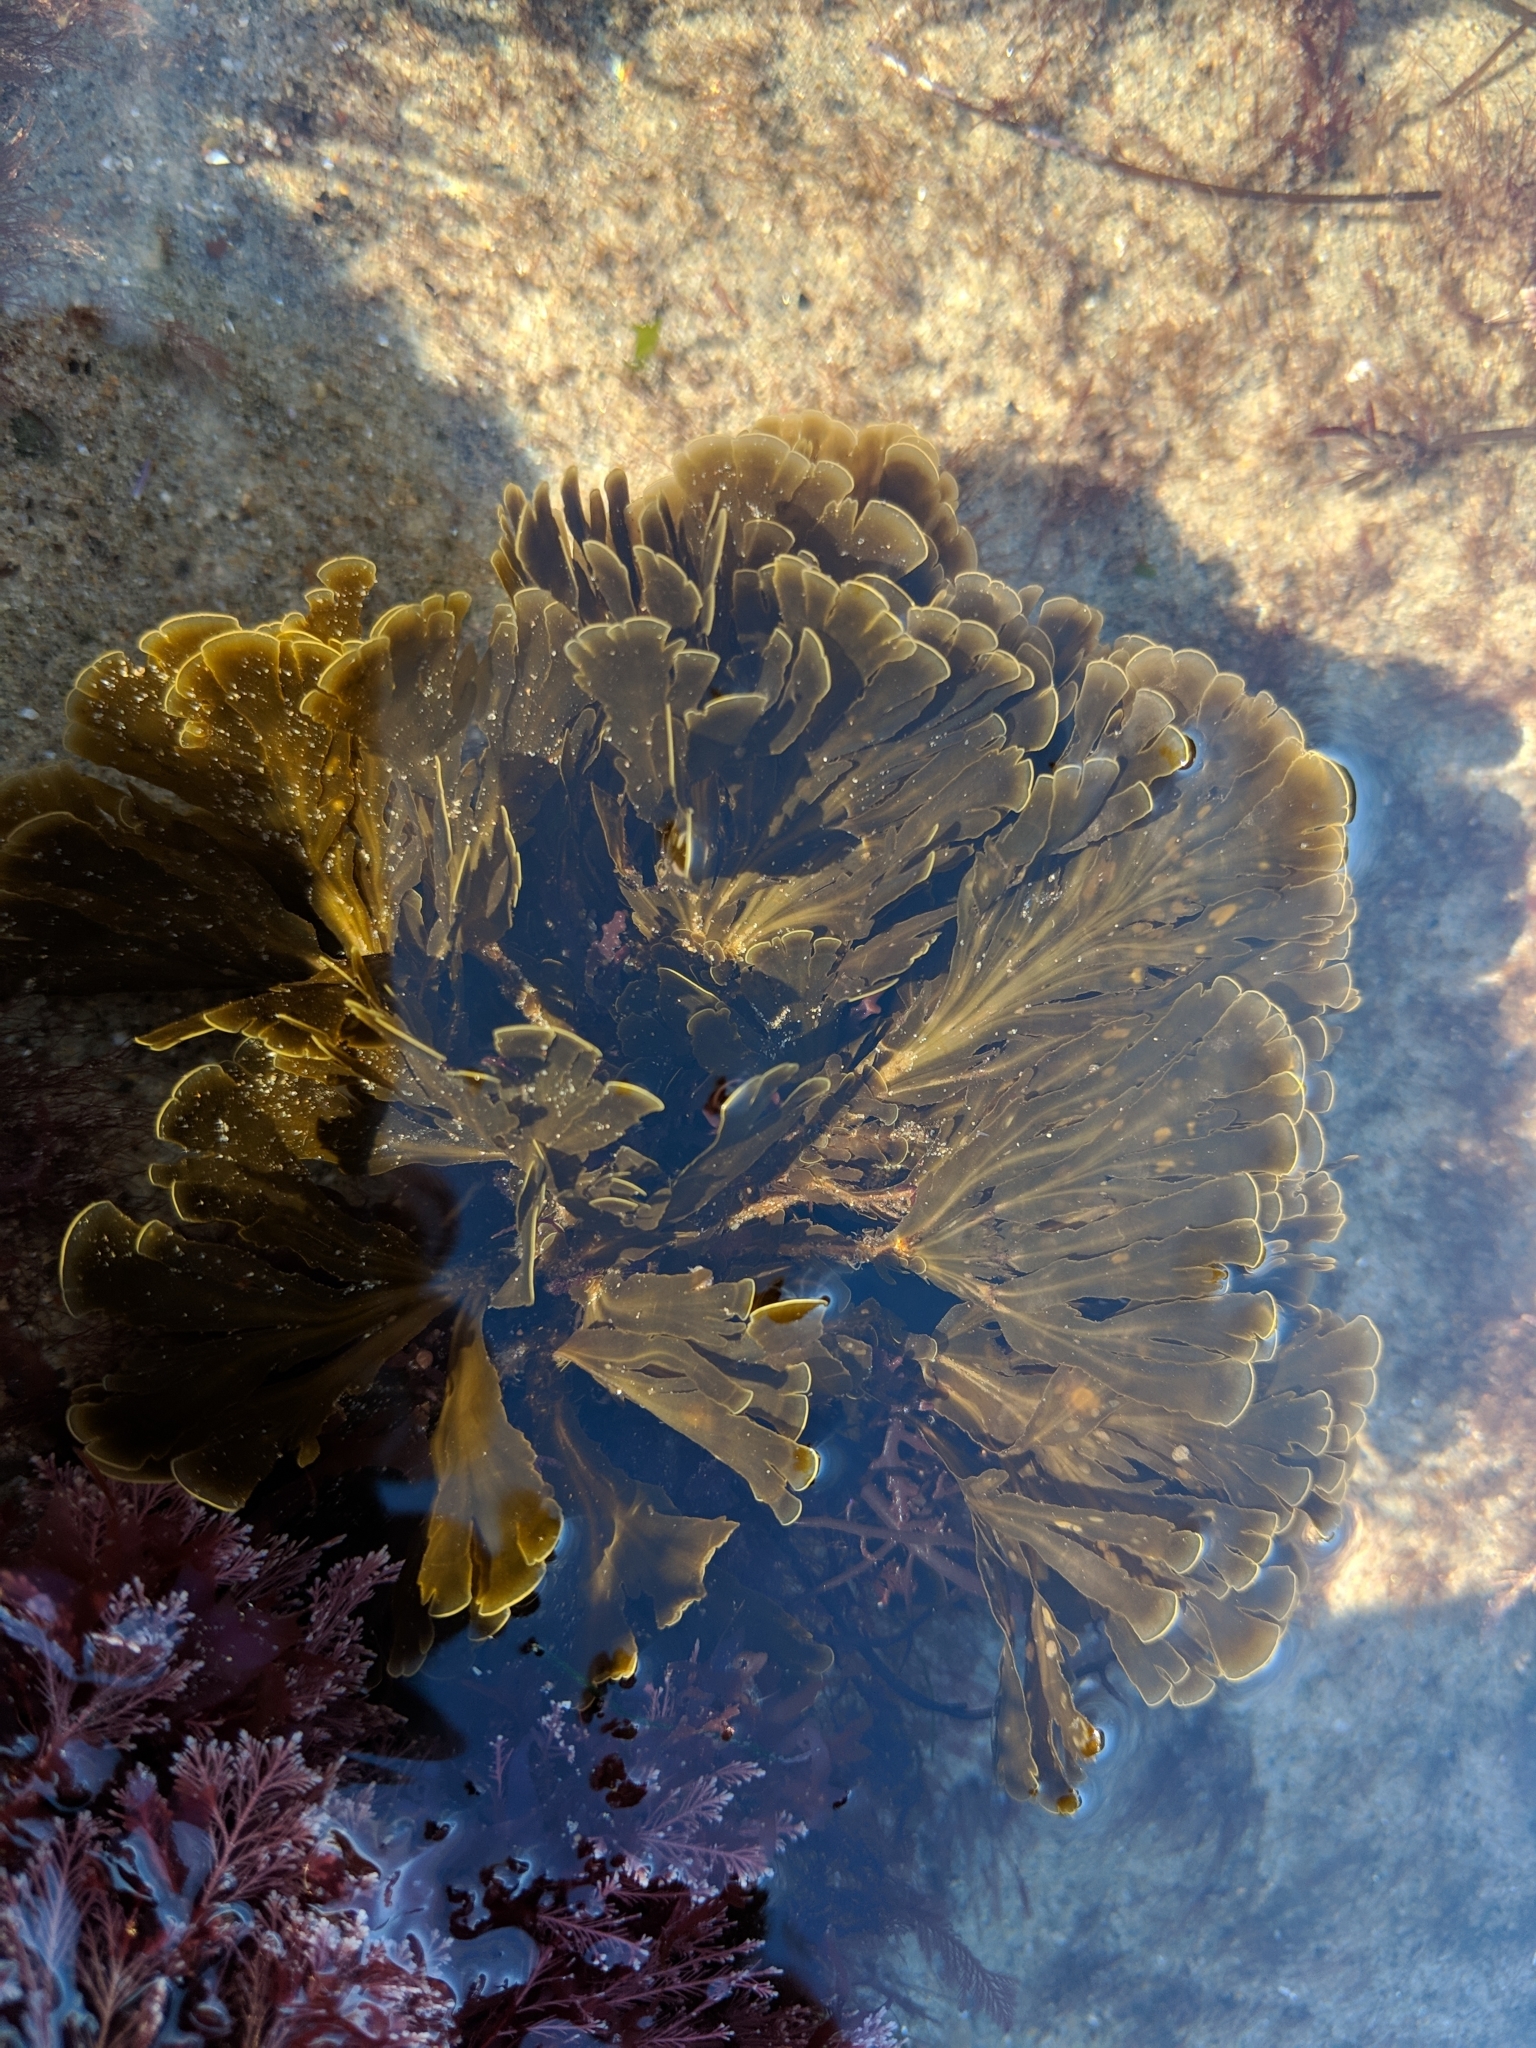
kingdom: Chromista
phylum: Ochrophyta
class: Phaeophyceae
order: Dictyotales
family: Dictyotaceae
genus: Zonaria
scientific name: Zonaria farlowii
